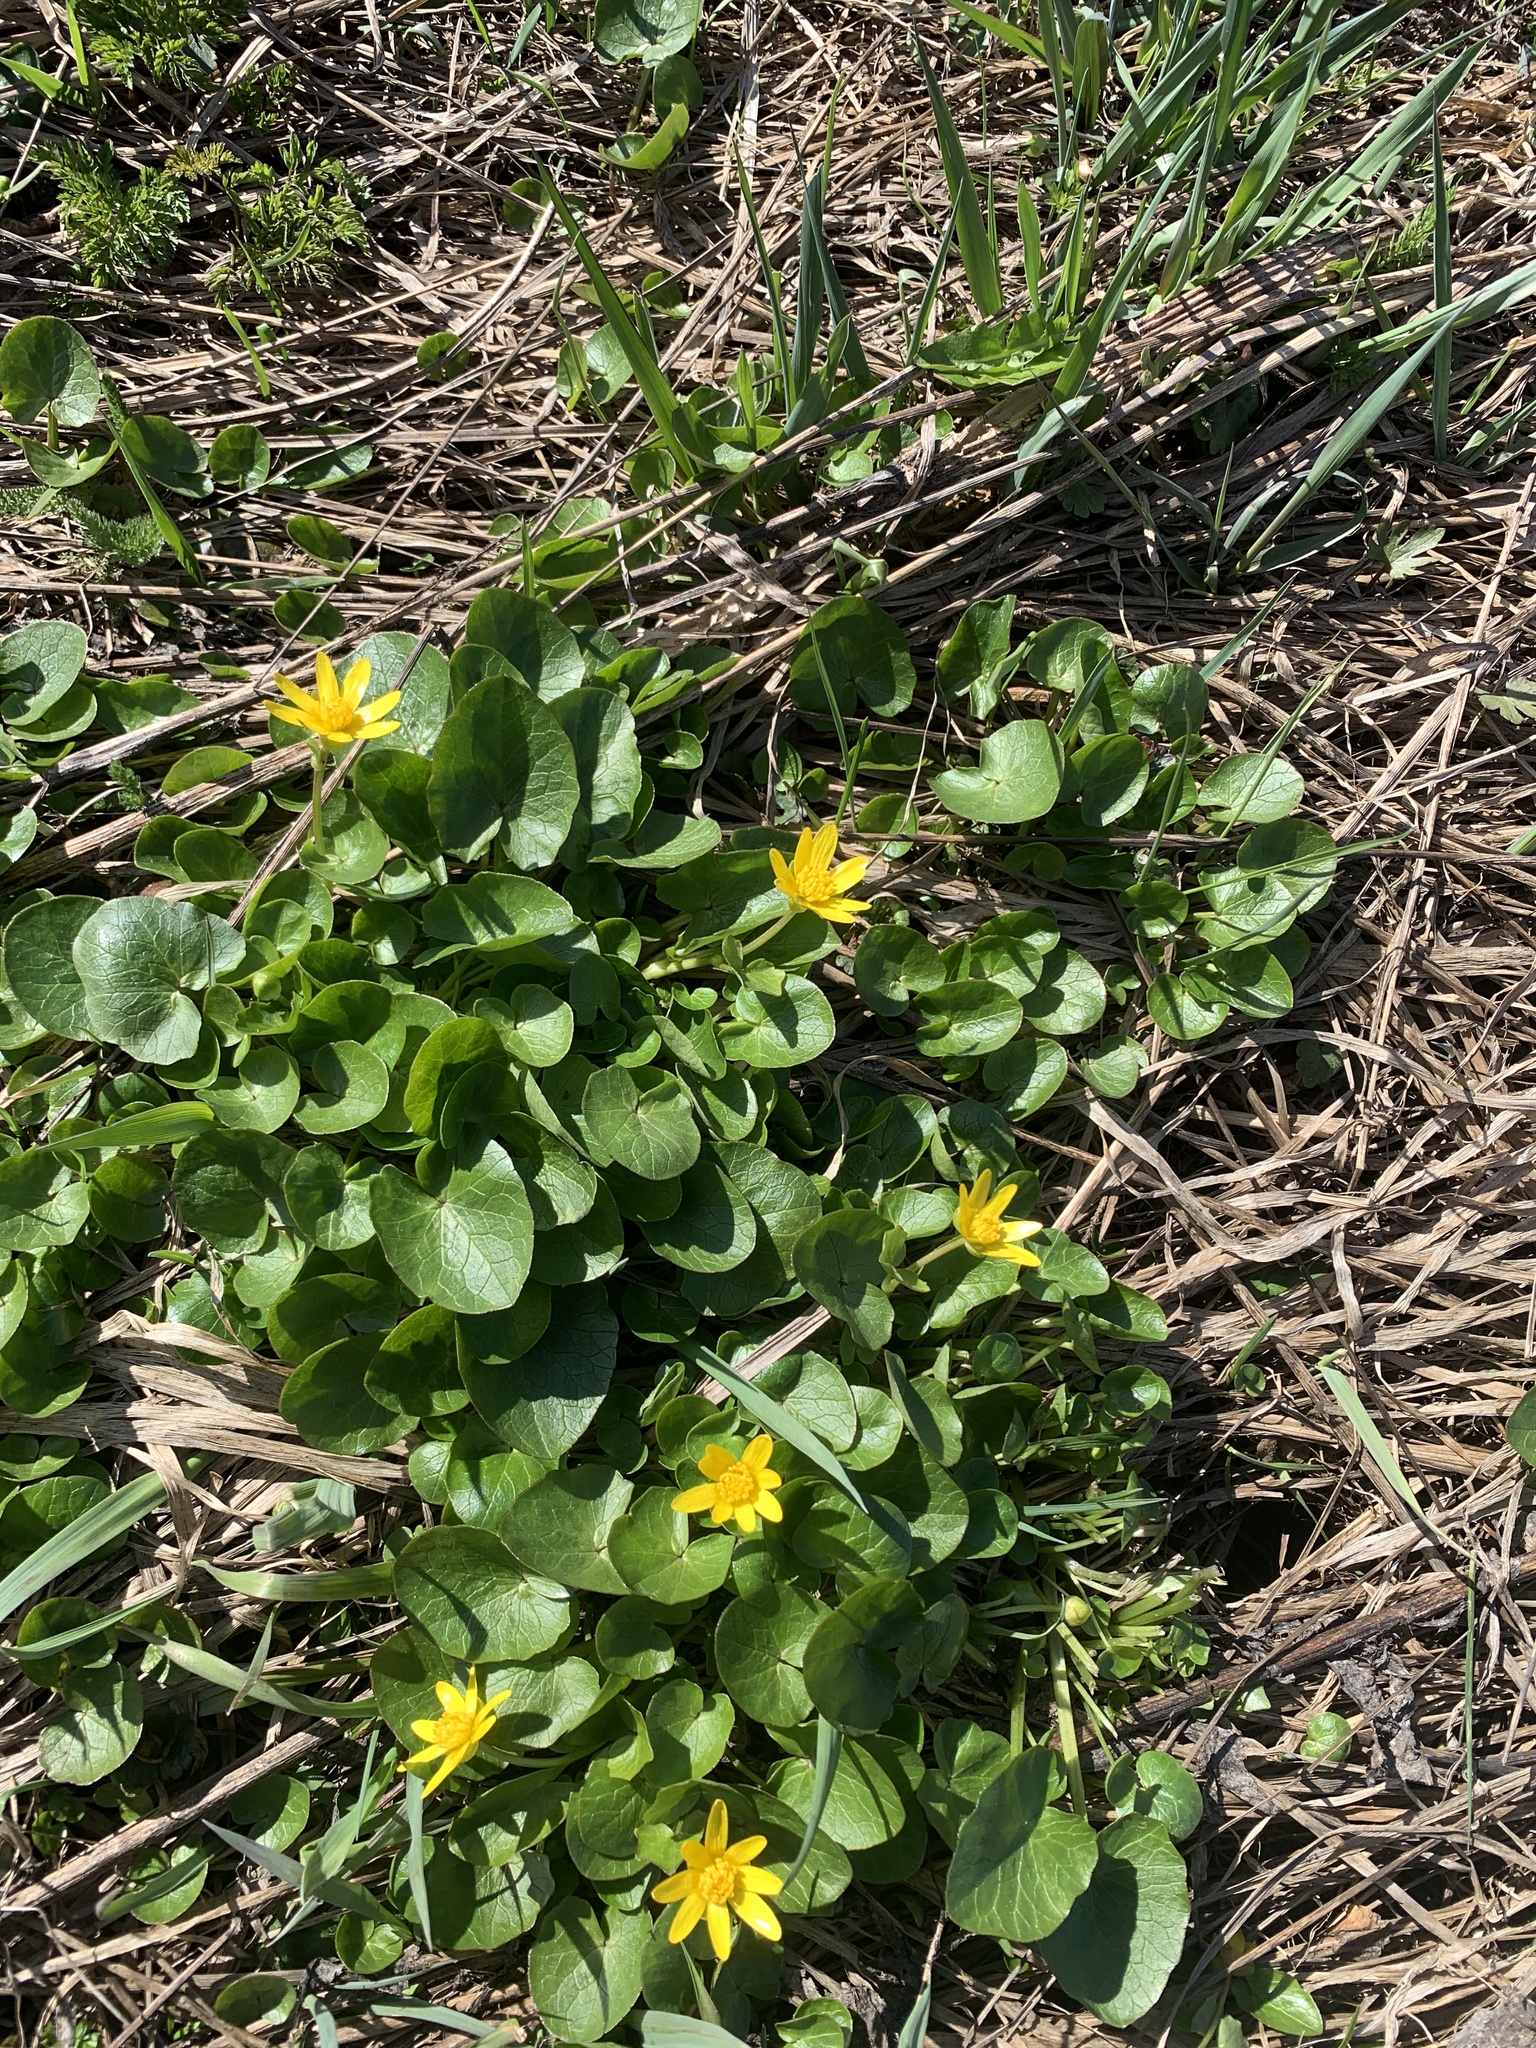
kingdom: Plantae
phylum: Tracheophyta
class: Magnoliopsida
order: Ranunculales
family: Ranunculaceae
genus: Ficaria
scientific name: Ficaria verna
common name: Lesser celandine
